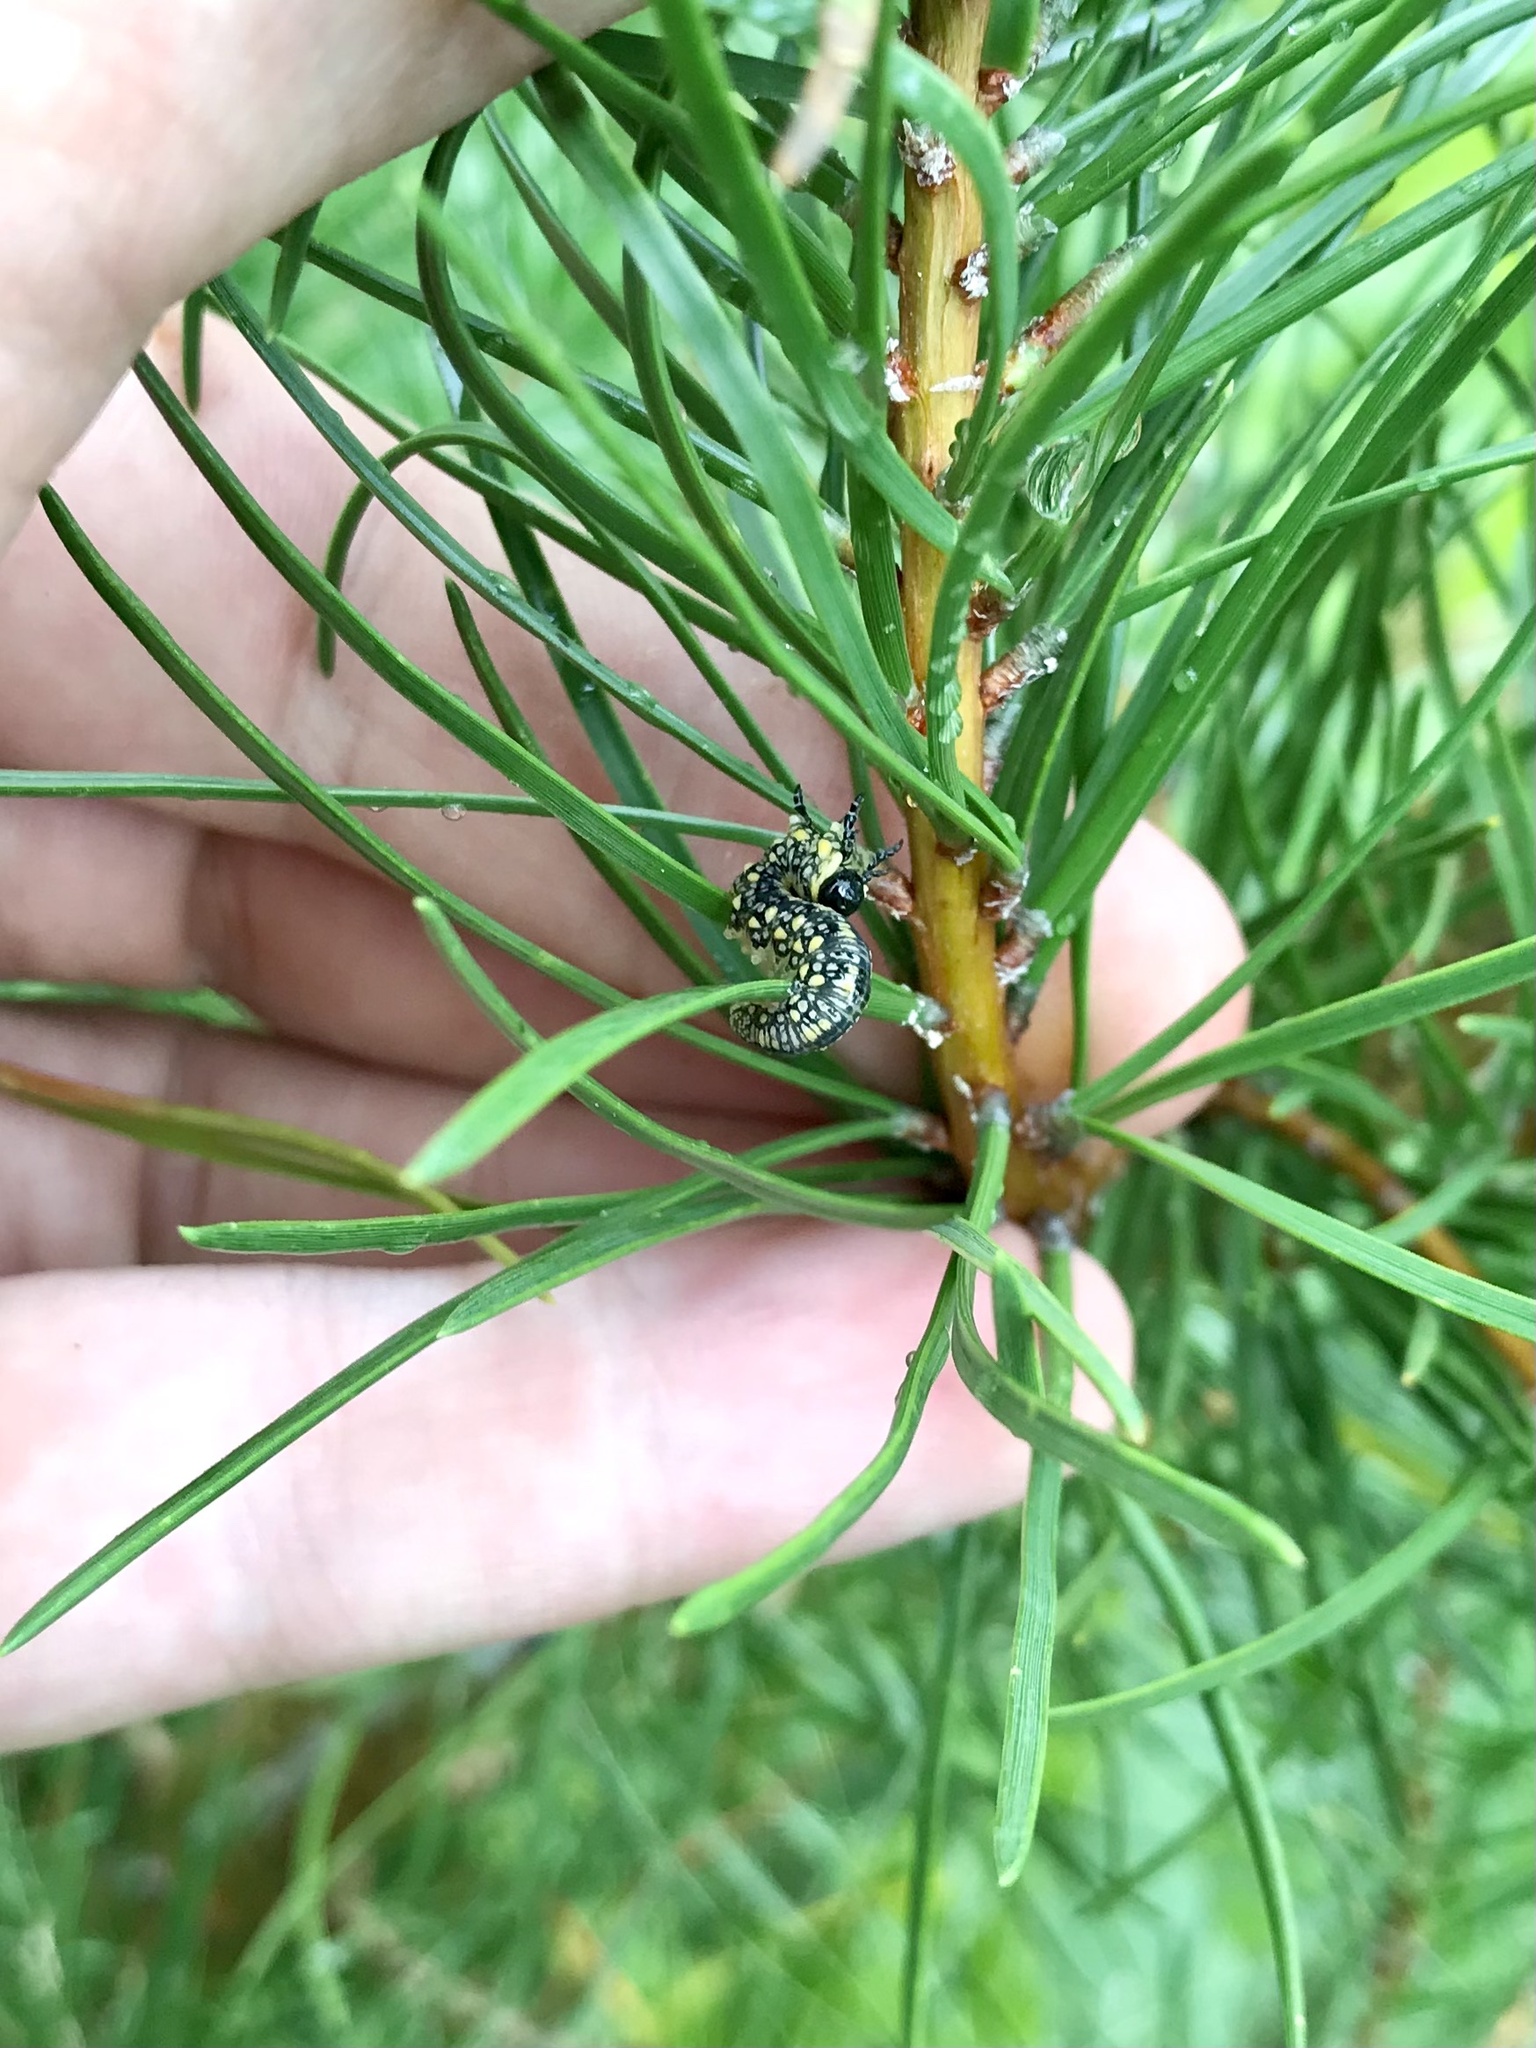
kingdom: Animalia
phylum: Arthropoda
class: Insecta
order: Hymenoptera
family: Diprionidae
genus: Diprion
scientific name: Diprion similis
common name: Pine sawfly
